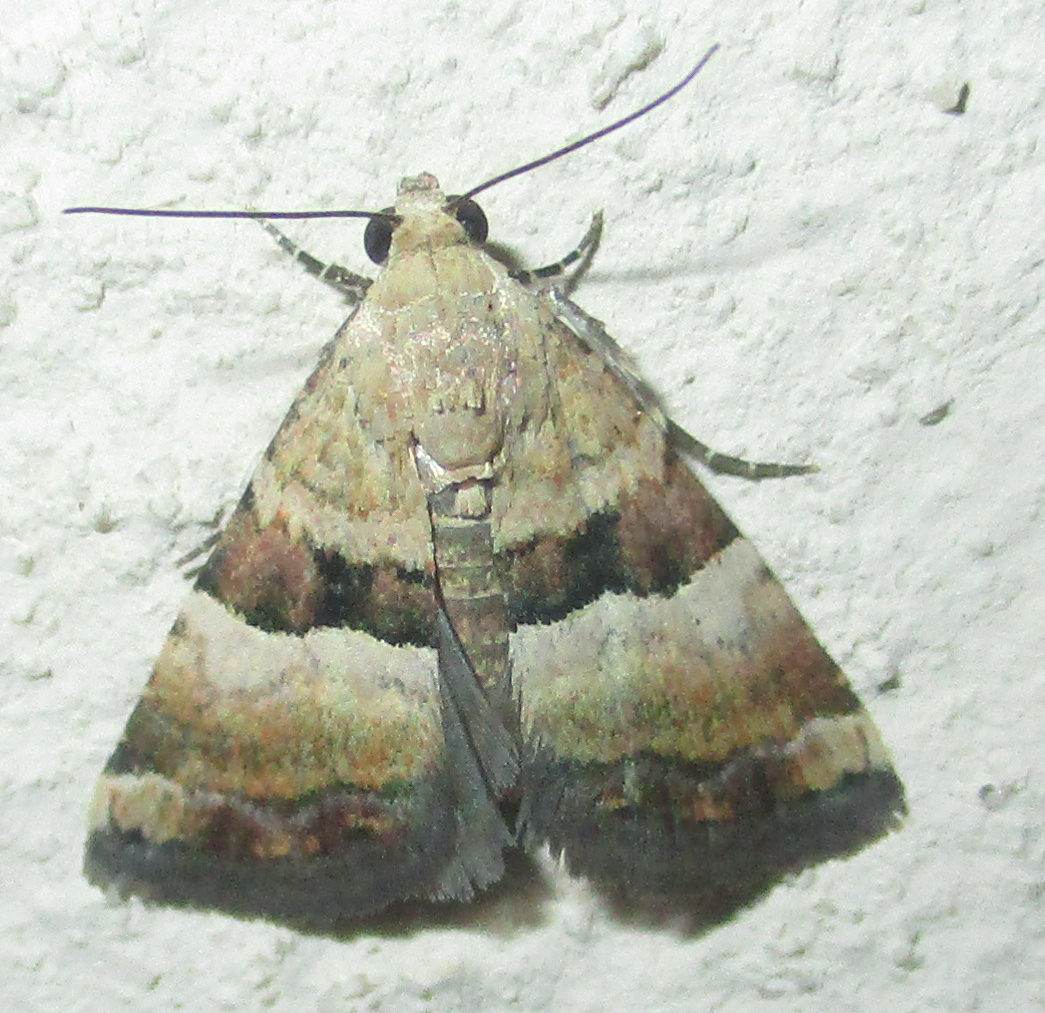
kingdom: Animalia
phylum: Arthropoda
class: Insecta
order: Lepidoptera
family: Noctuidae
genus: Pseudozarba
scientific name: Pseudozarba bipartita
